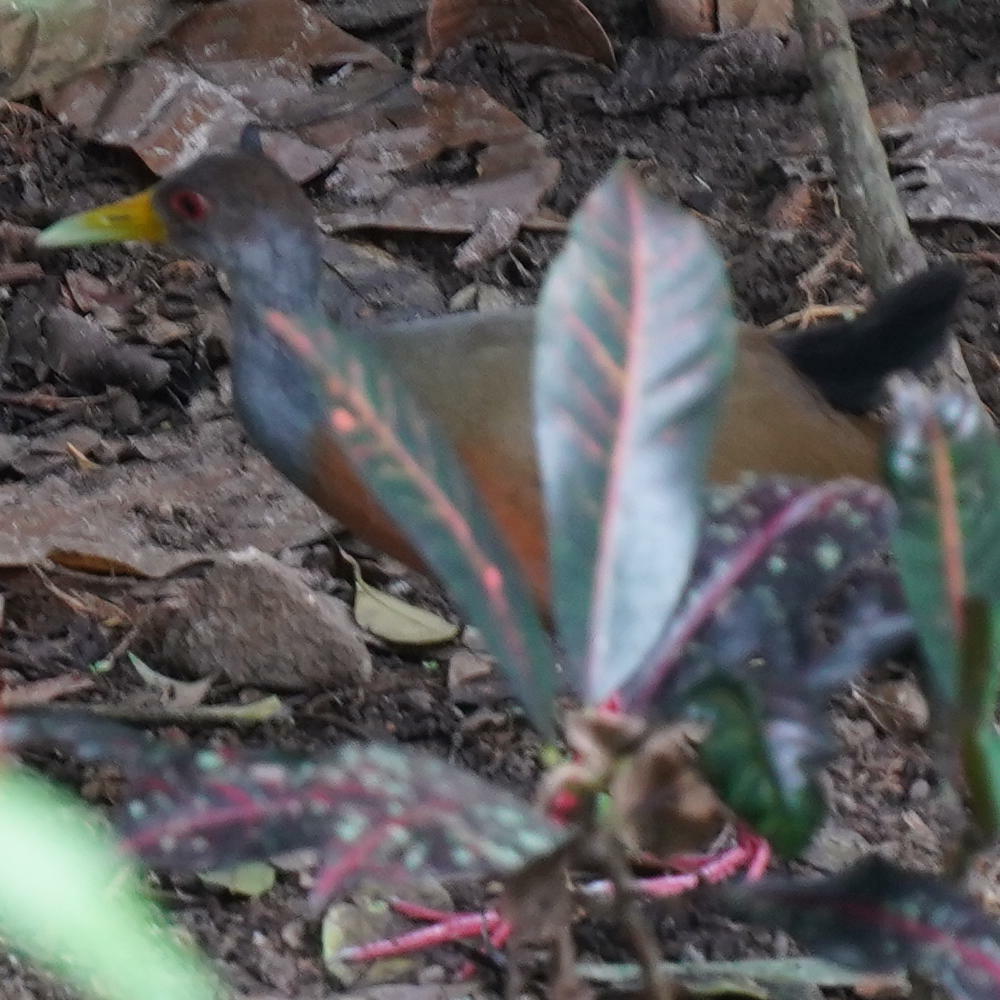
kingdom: Animalia
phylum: Chordata
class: Aves
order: Gruiformes
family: Rallidae
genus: Aramides
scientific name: Aramides cajanea
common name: Gray-necked wood-rail
